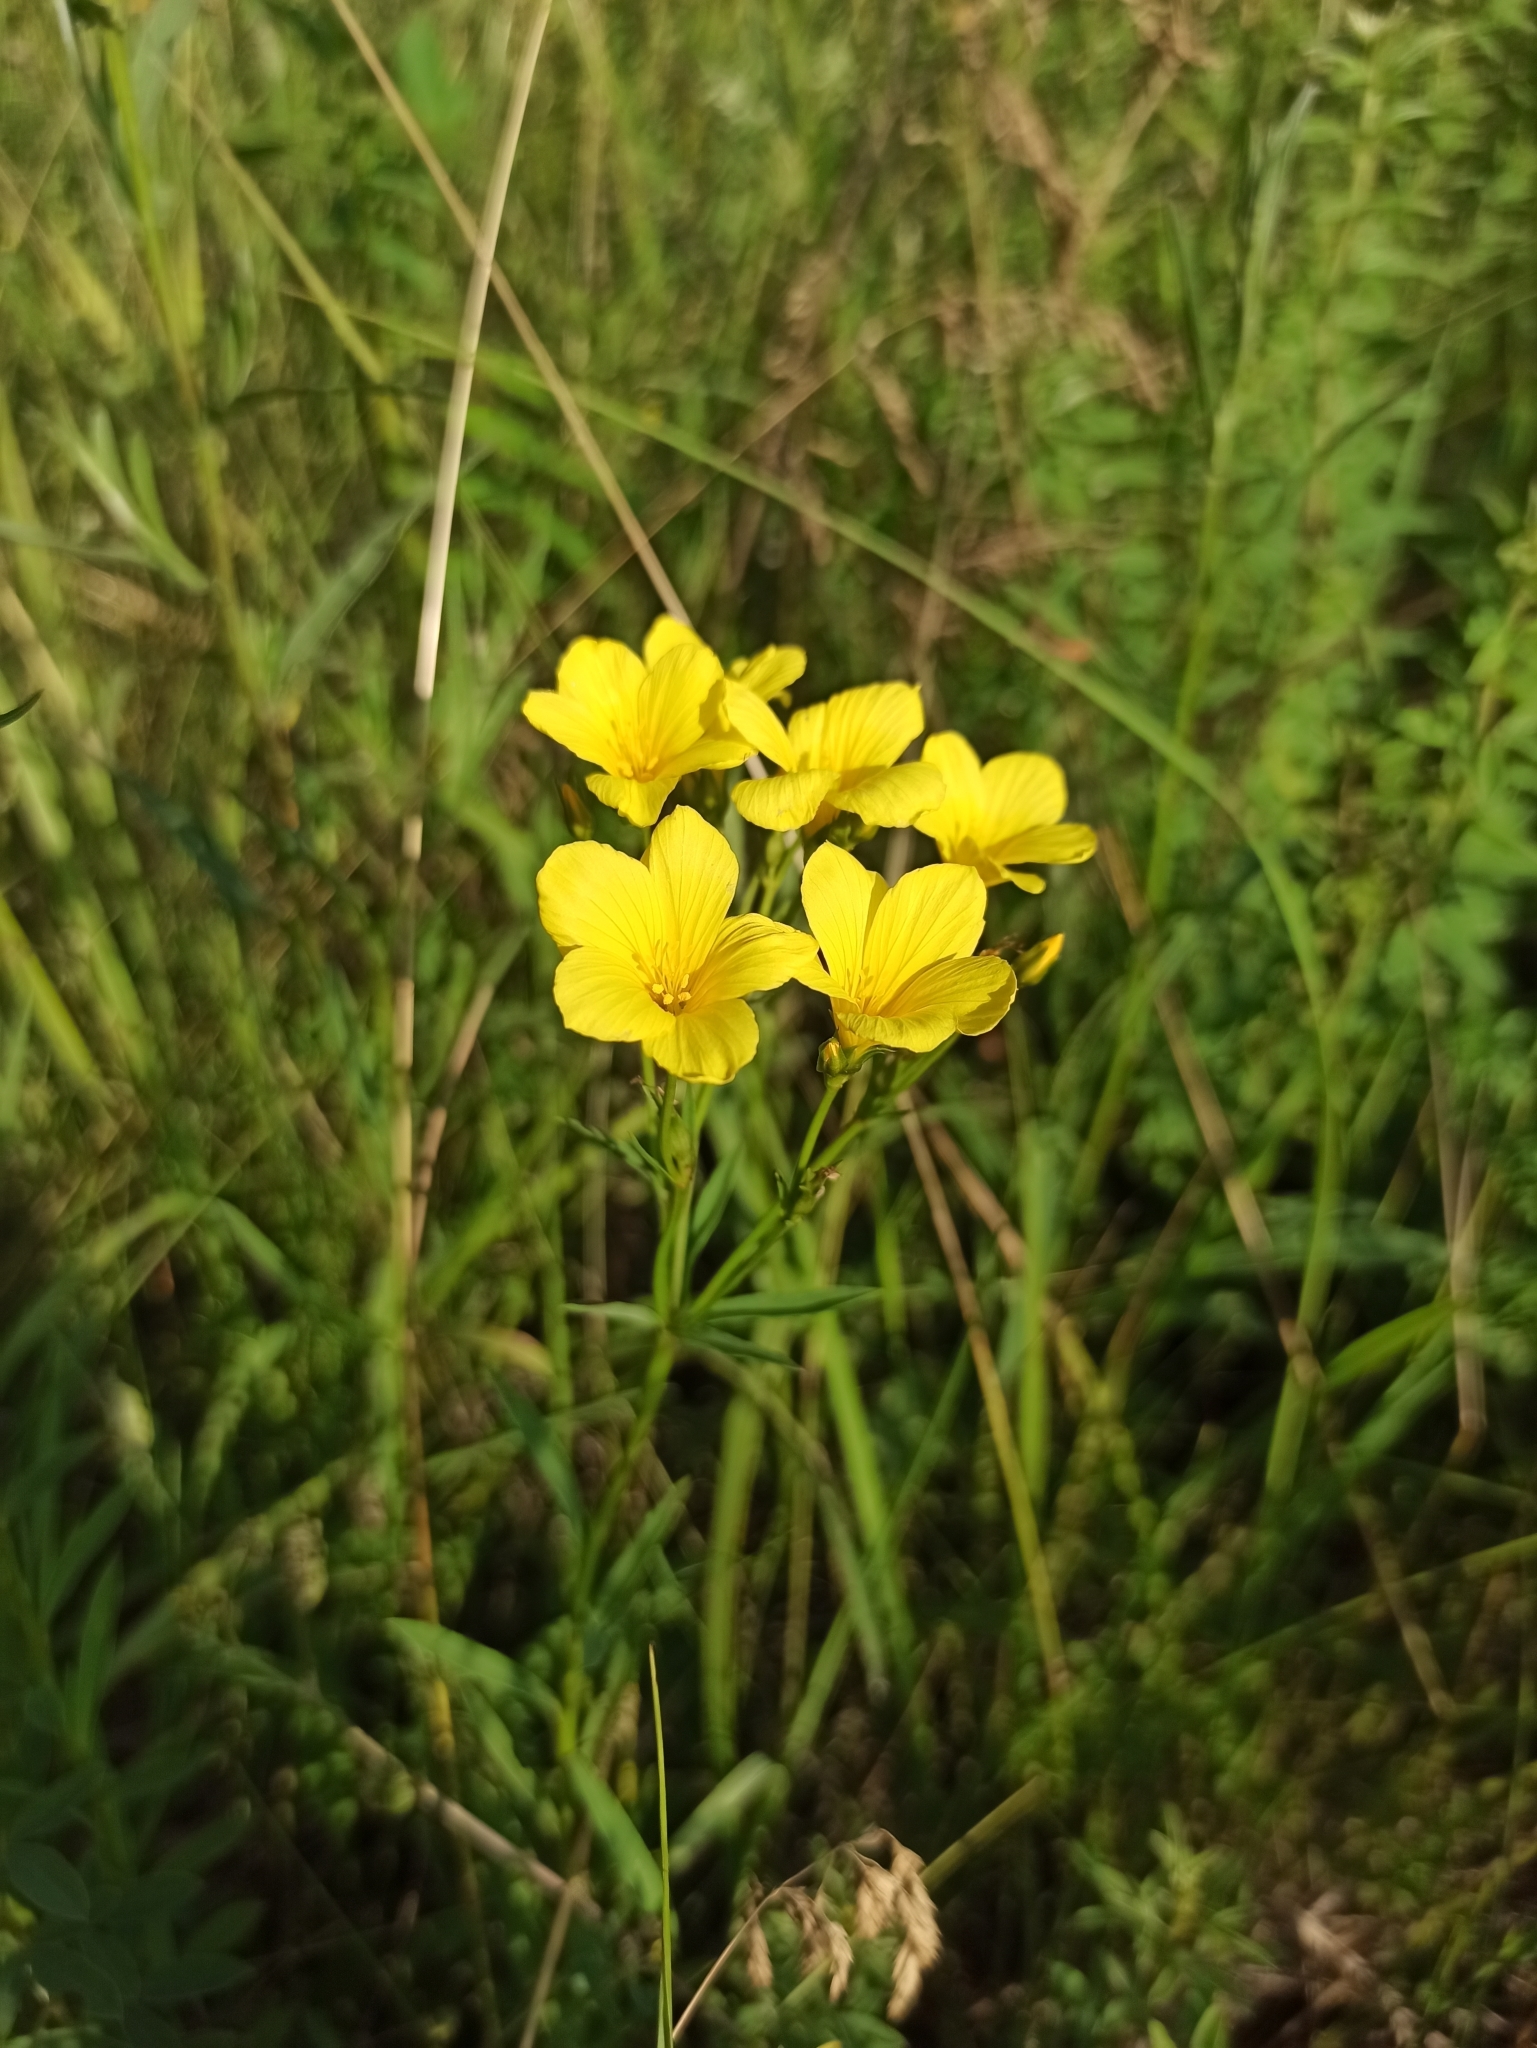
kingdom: Plantae
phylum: Tracheophyta
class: Magnoliopsida
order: Malpighiales
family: Linaceae
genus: Linum
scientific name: Linum flavum
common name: Yellow flax
